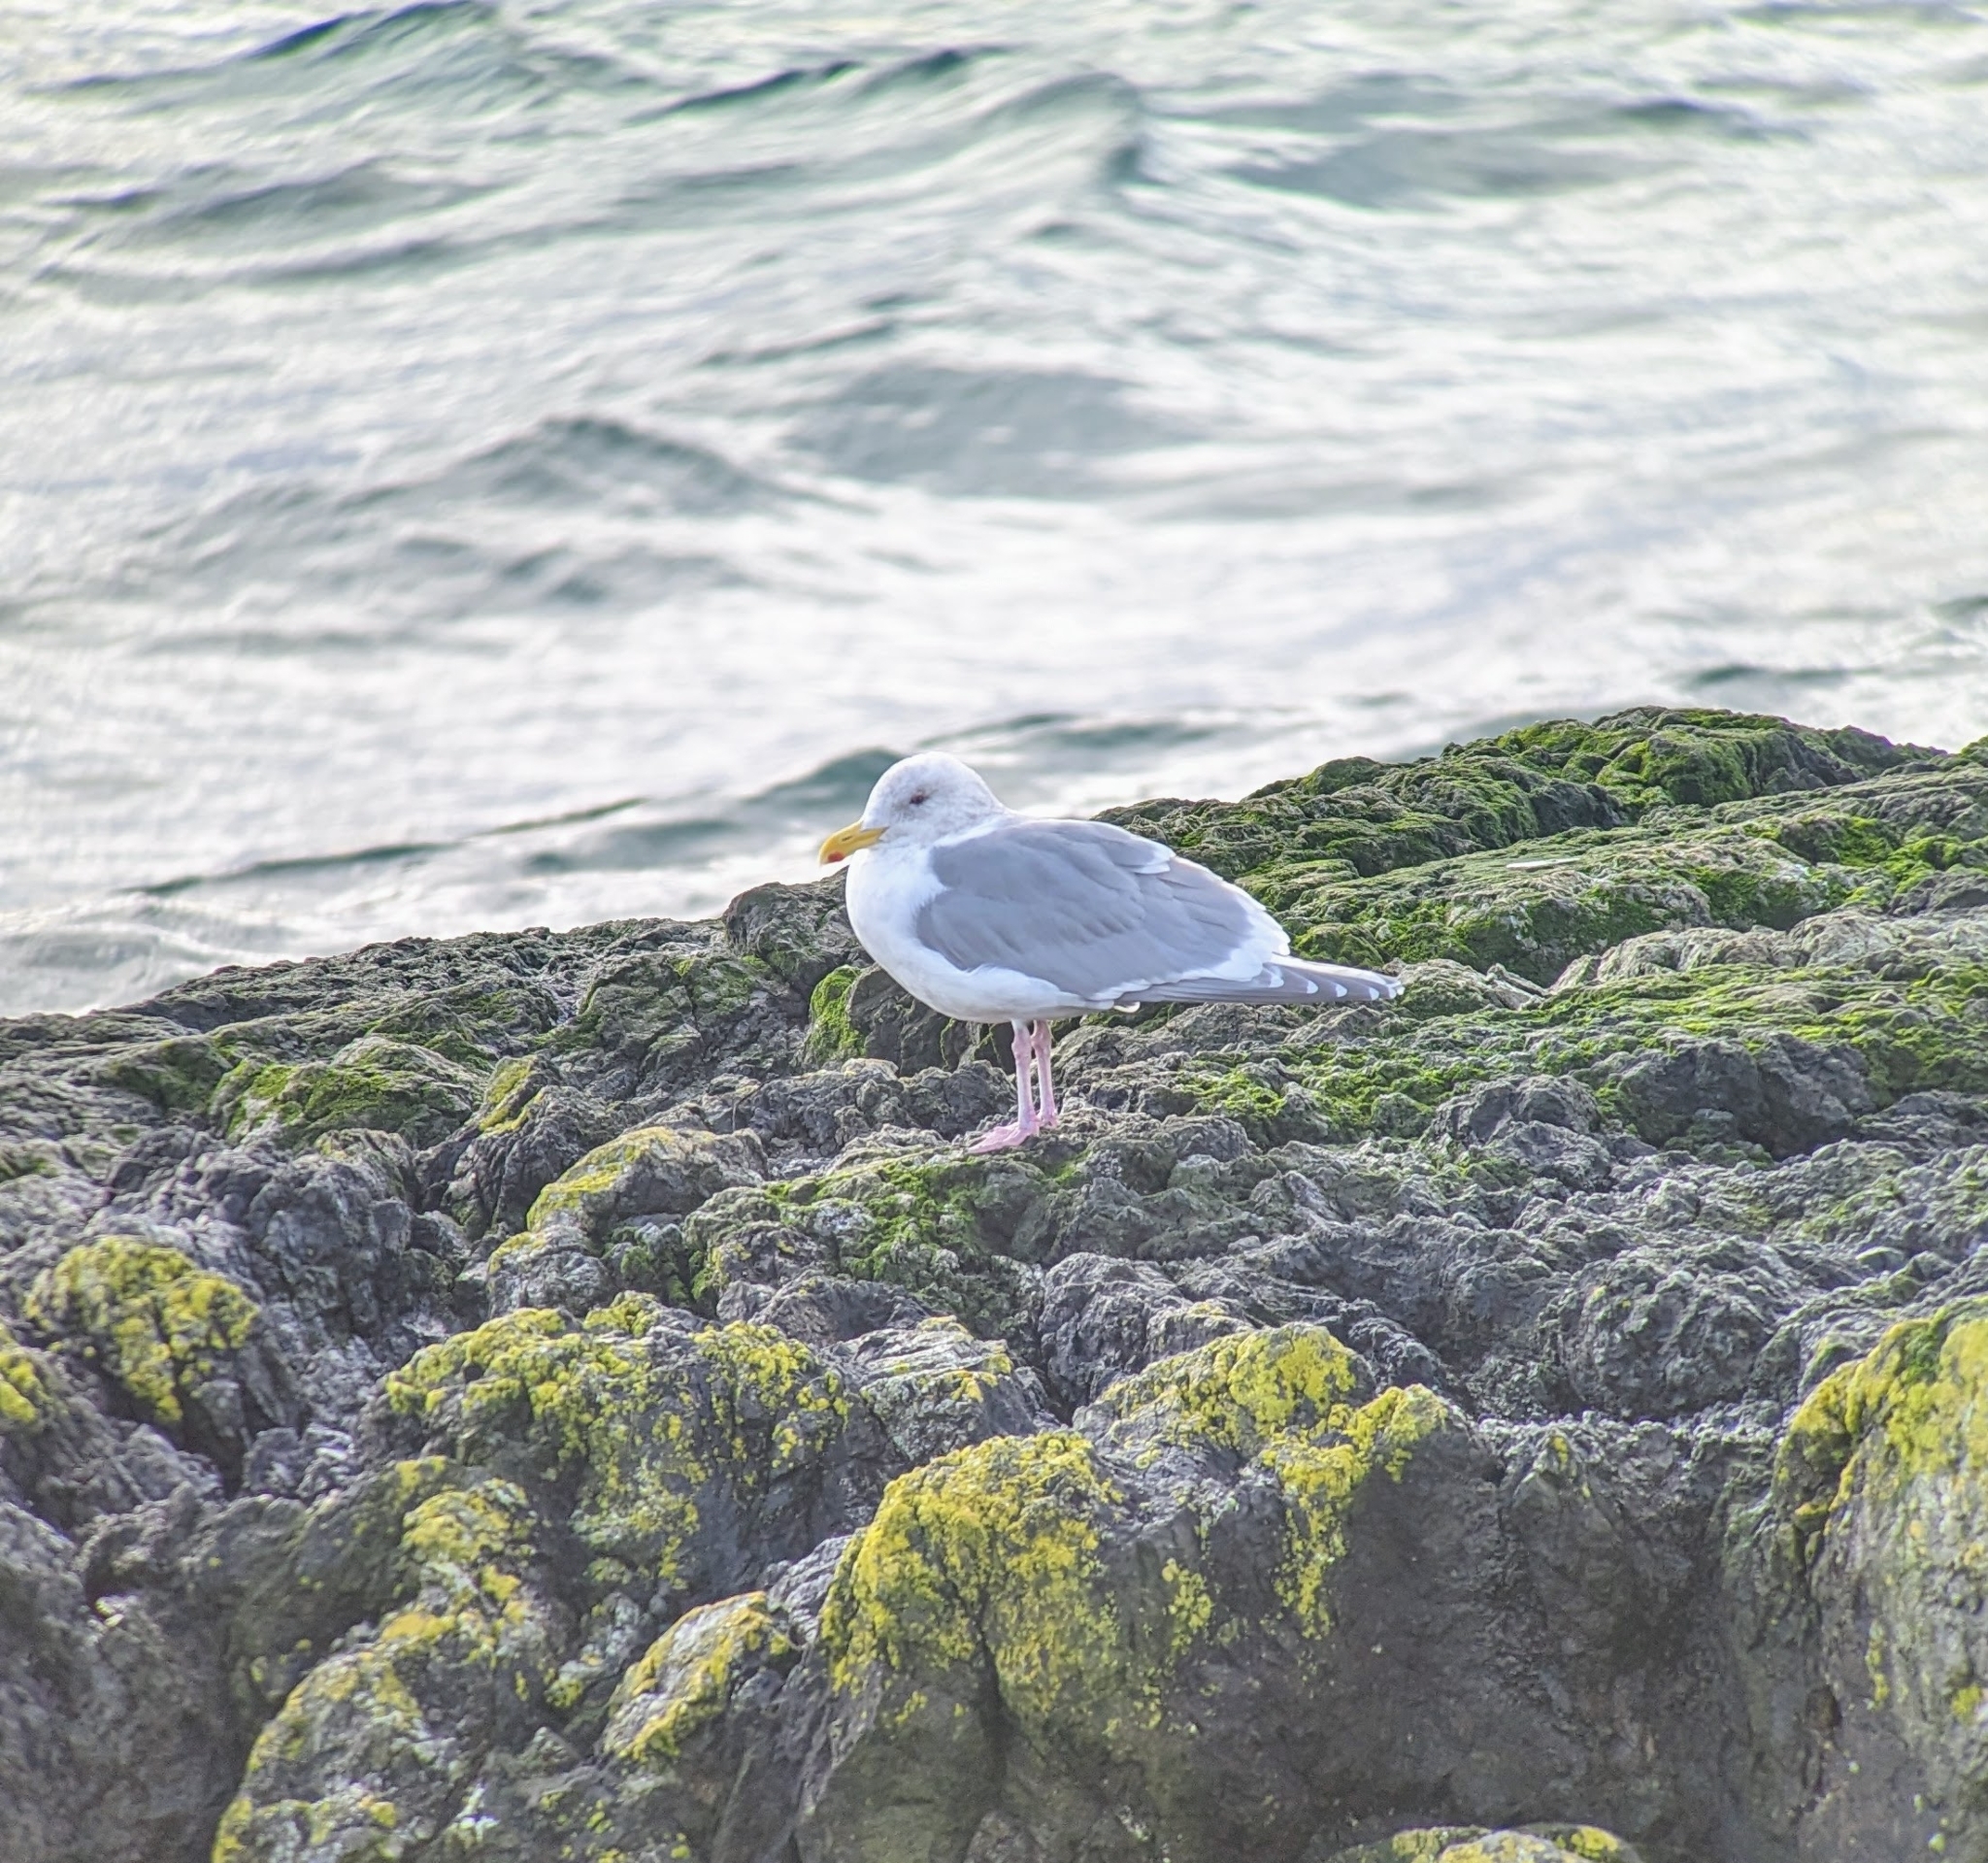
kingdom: Animalia
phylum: Chordata
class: Aves
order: Charadriiformes
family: Laridae
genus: Larus
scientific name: Larus glaucescens
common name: Glaucous-winged gull
